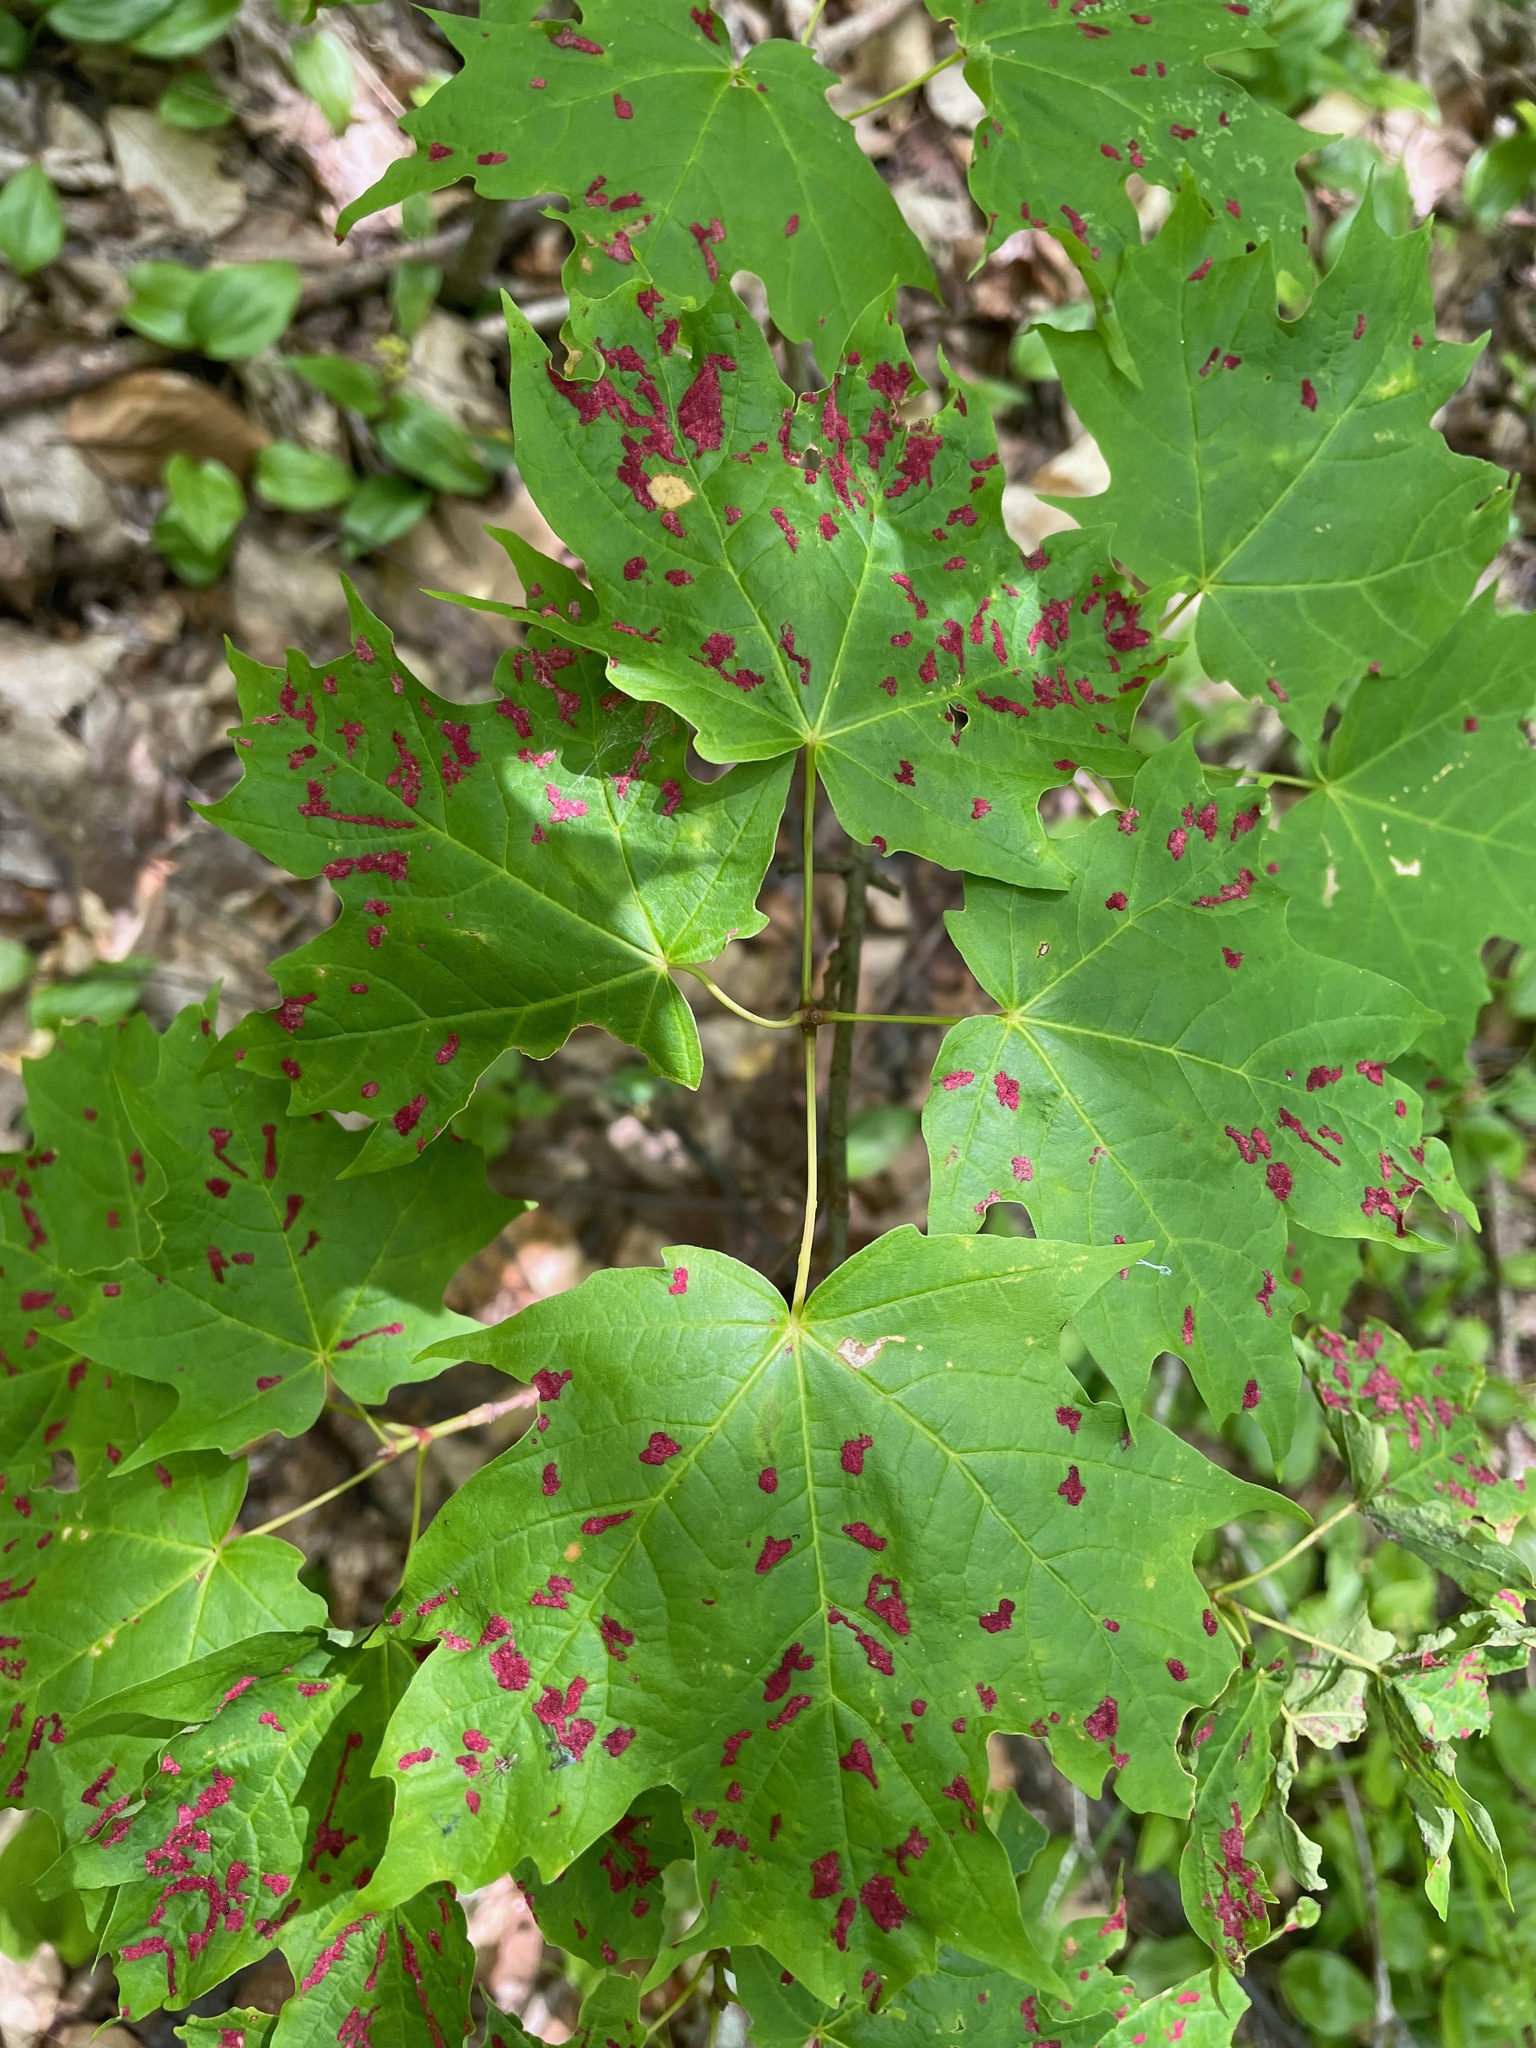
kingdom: Animalia
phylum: Arthropoda
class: Arachnida
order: Trombidiformes
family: Eriophyidae
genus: Aceria
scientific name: Aceria
